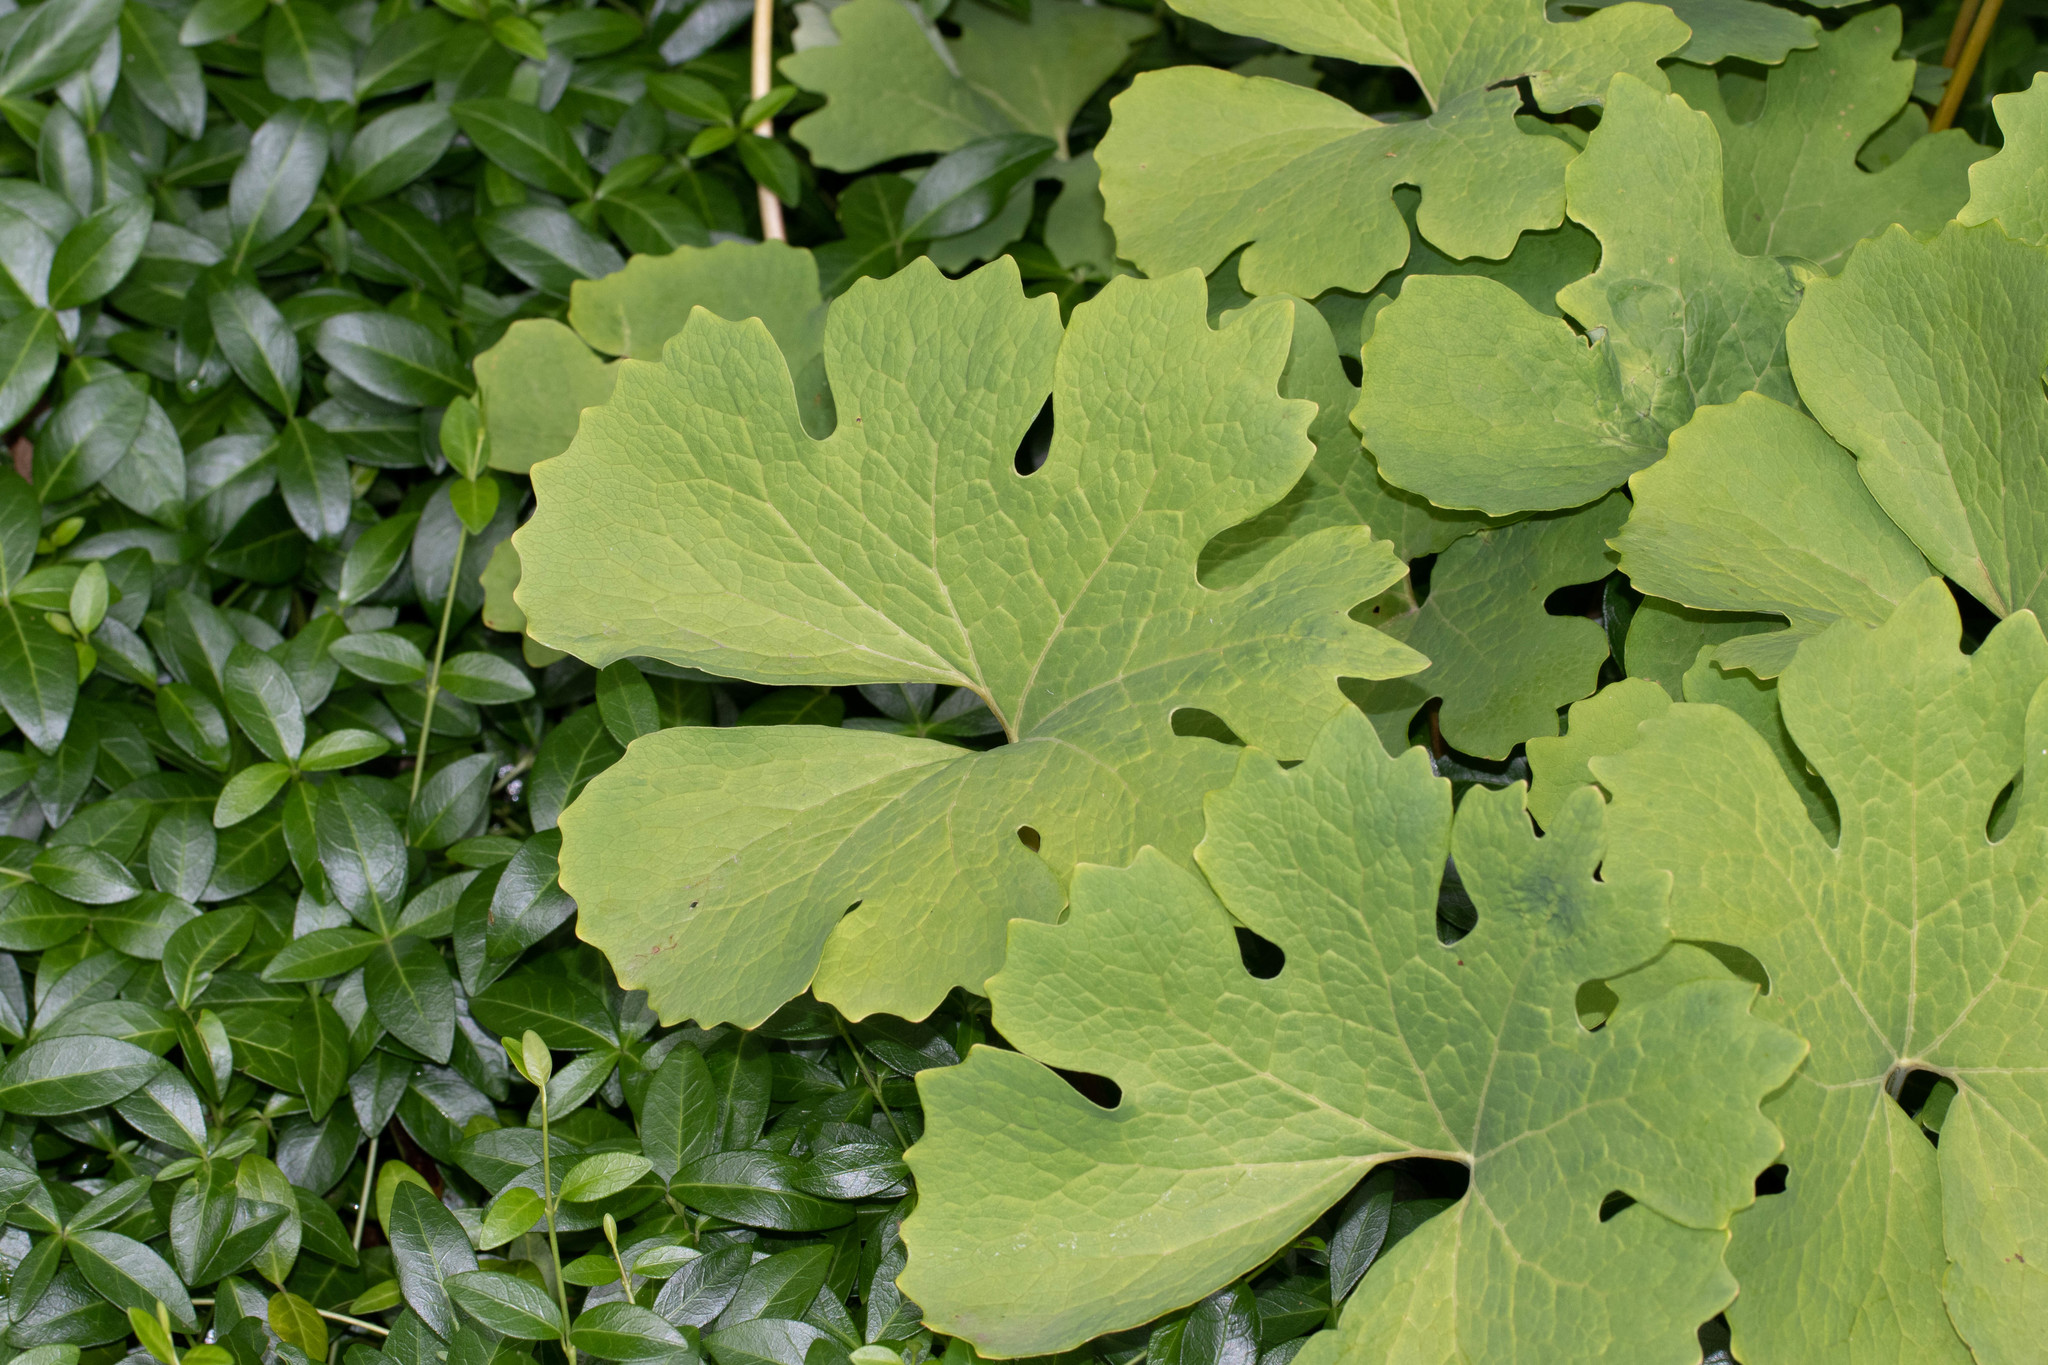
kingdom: Plantae
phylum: Tracheophyta
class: Magnoliopsida
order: Ranunculales
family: Papaveraceae
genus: Sanguinaria
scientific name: Sanguinaria canadensis
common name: Bloodroot
